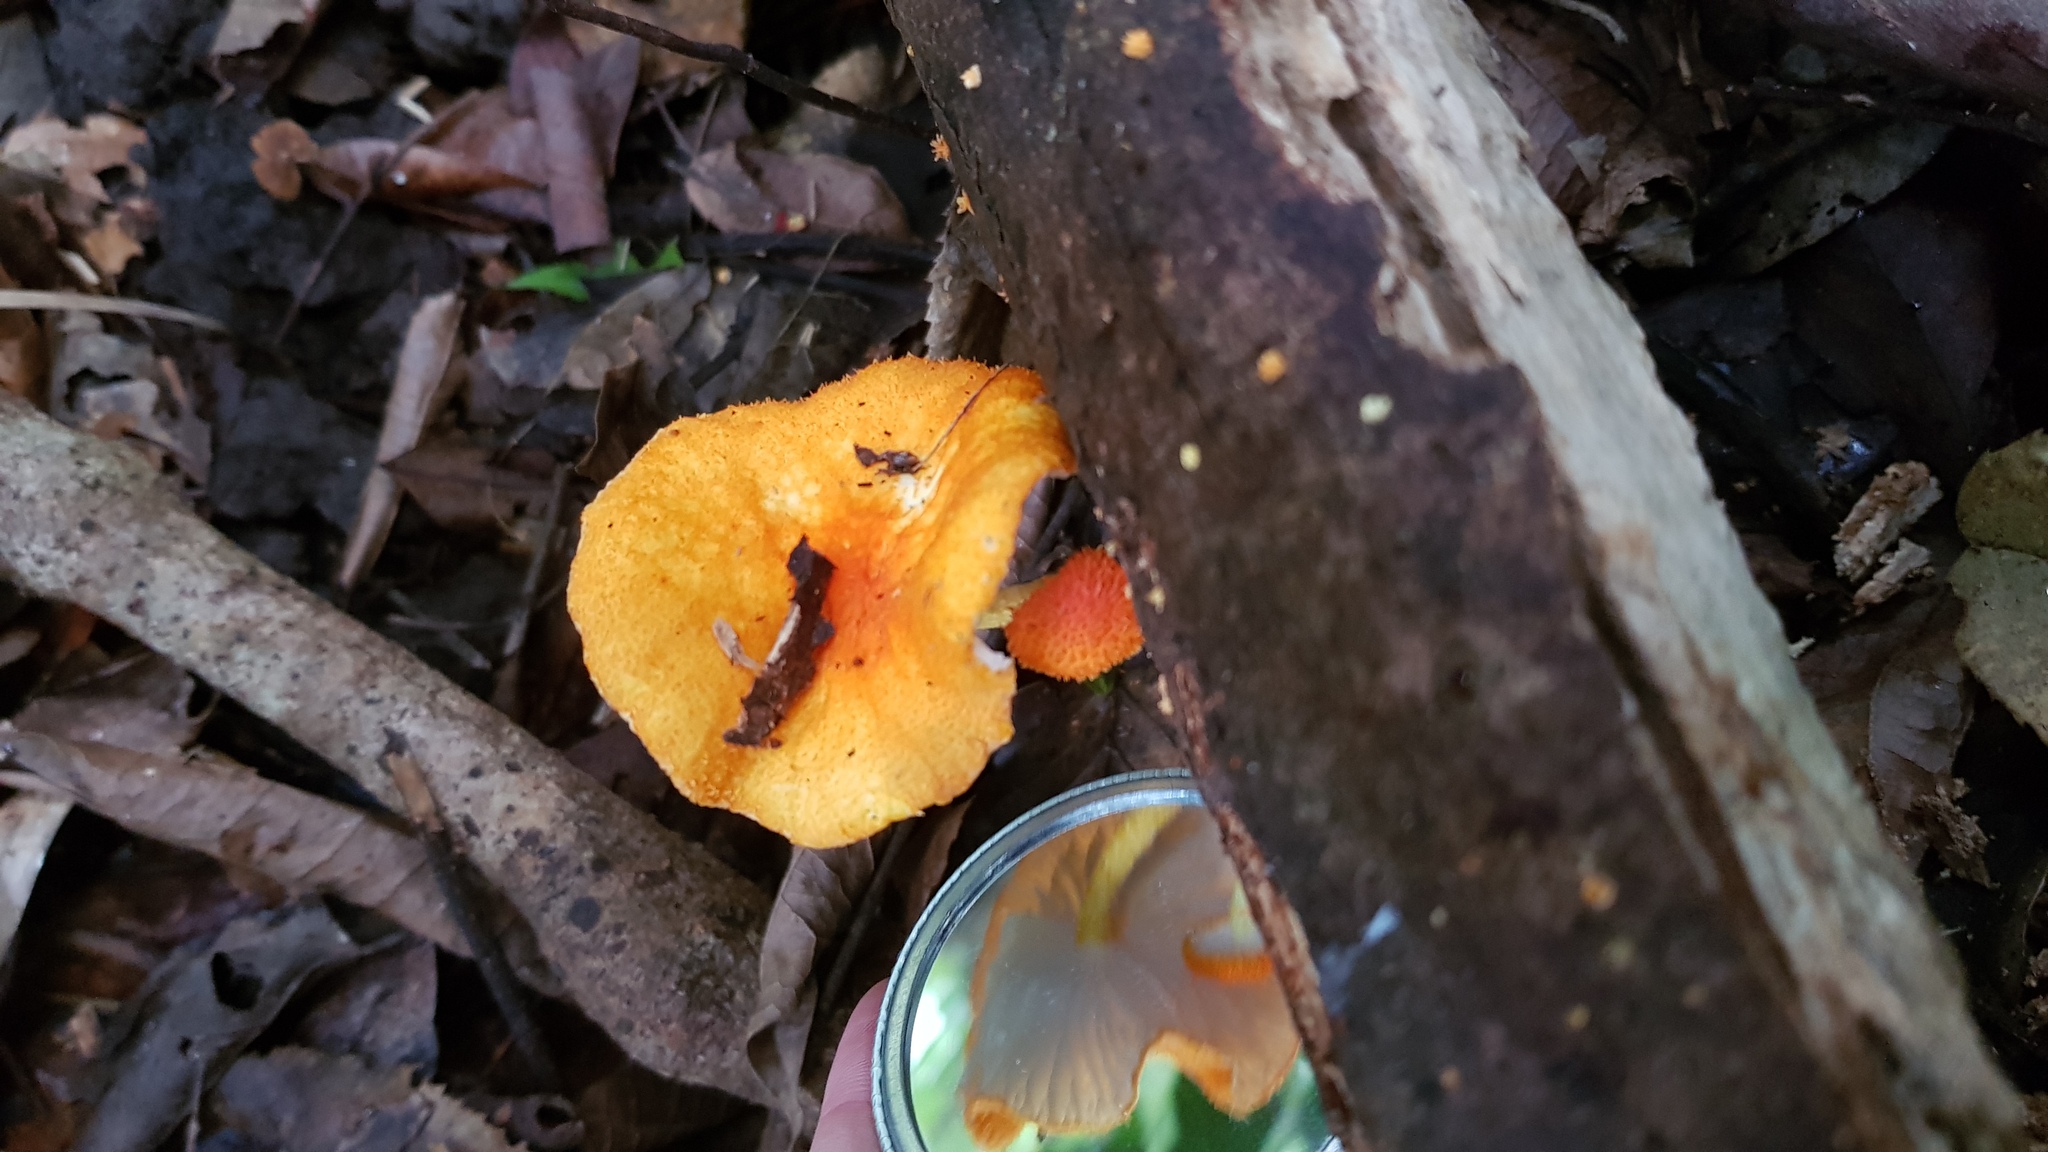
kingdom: Fungi
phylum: Basidiomycota
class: Agaricomycetes
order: Agaricales
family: Physalacriaceae
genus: Cyptotrama
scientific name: Cyptotrama asprata
